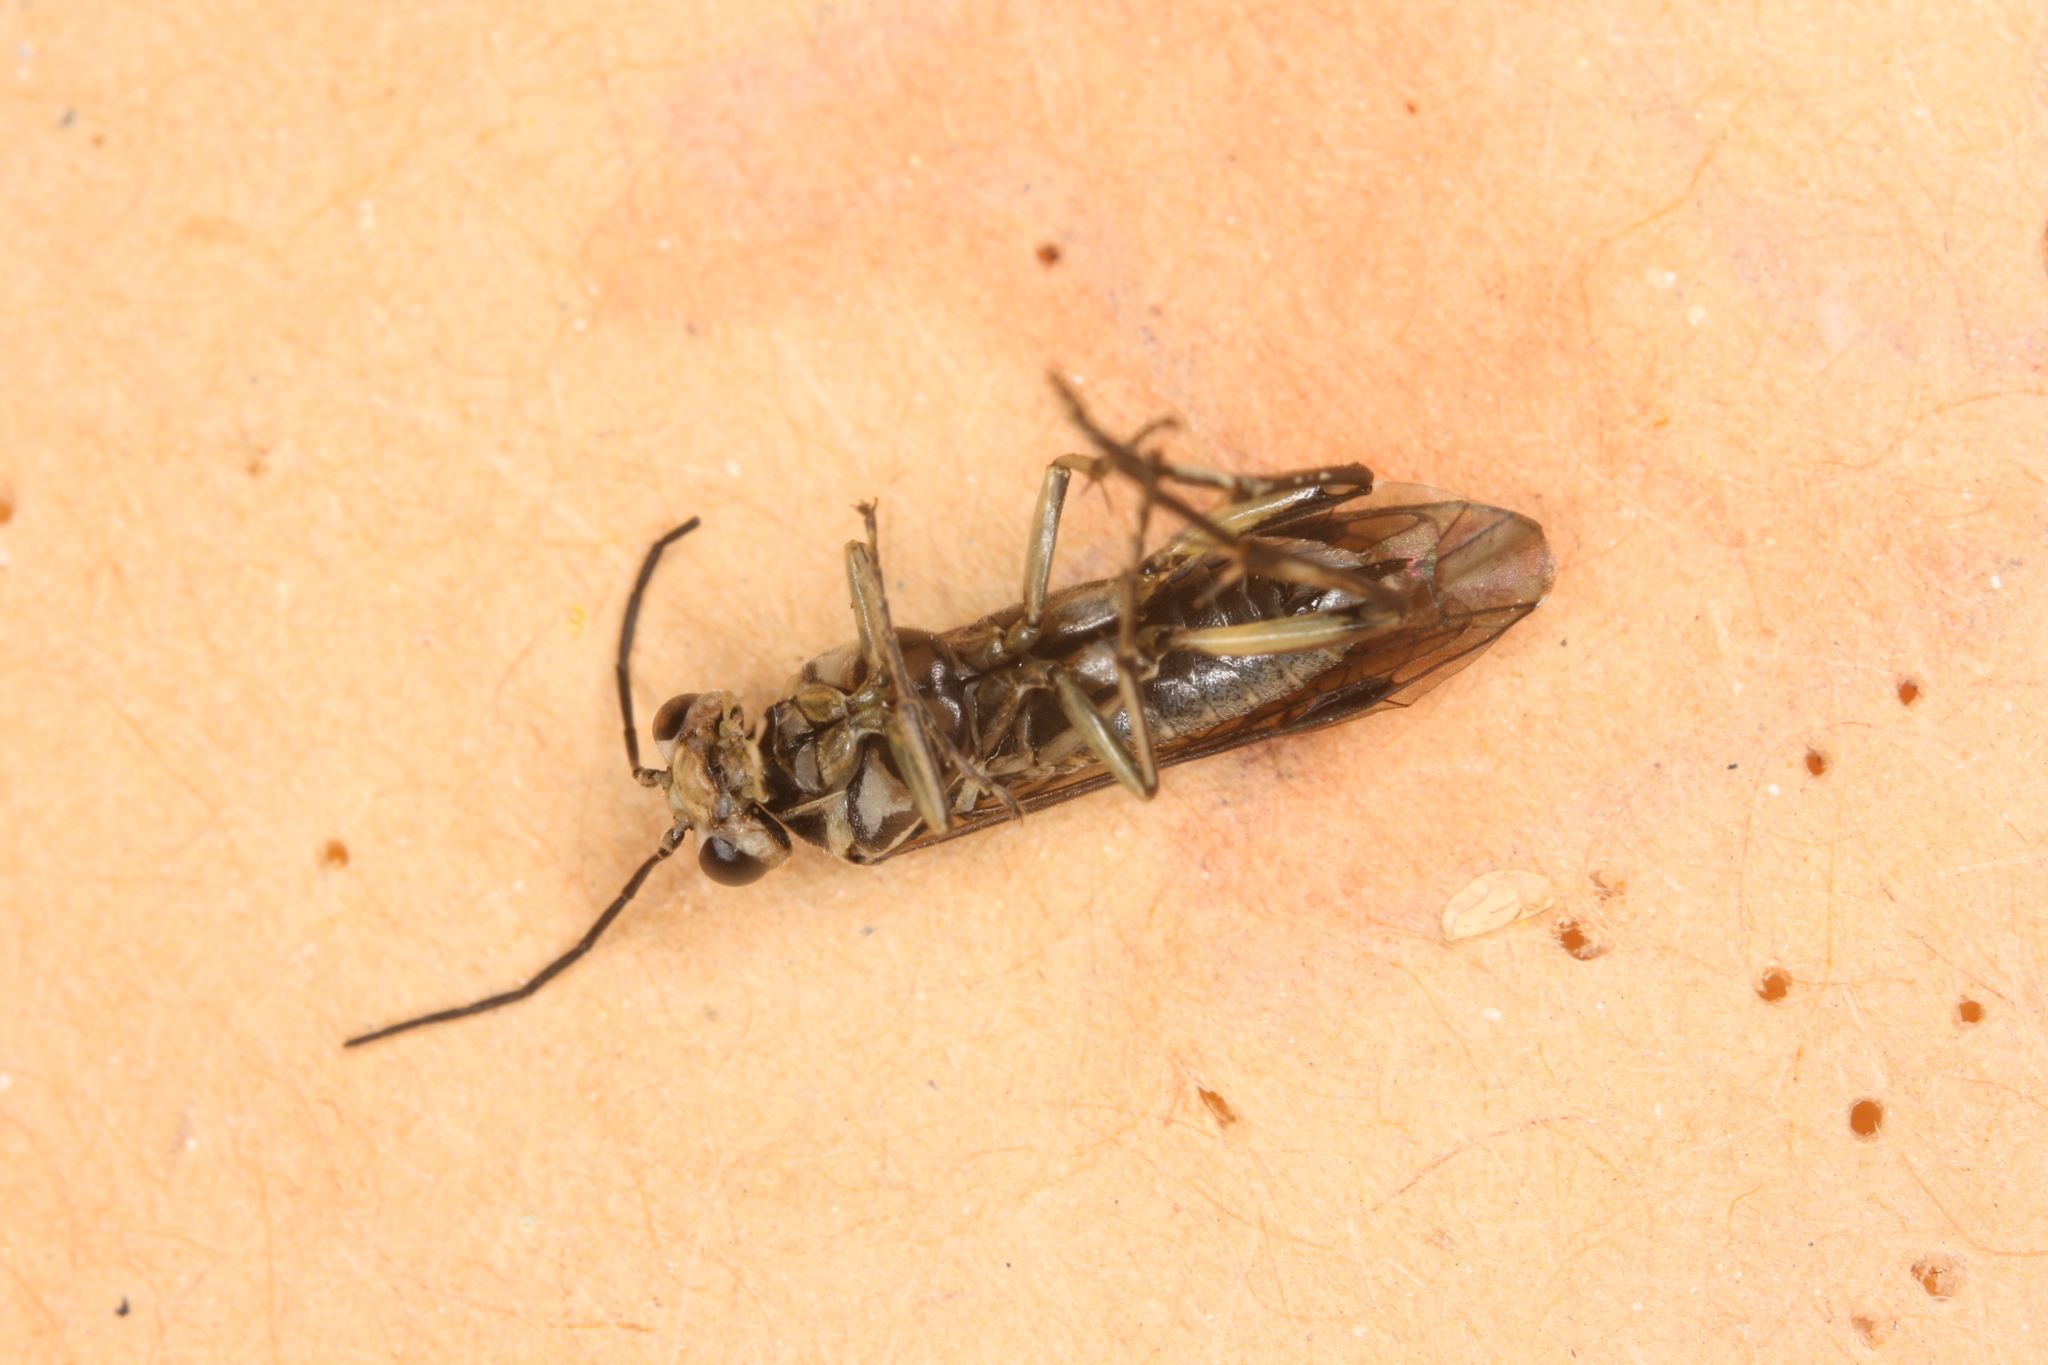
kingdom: Animalia
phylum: Arthropoda
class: Insecta
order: Hymenoptera
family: Tenthredinidae
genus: Pachyprotasis
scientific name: Pachyprotasis rapae
